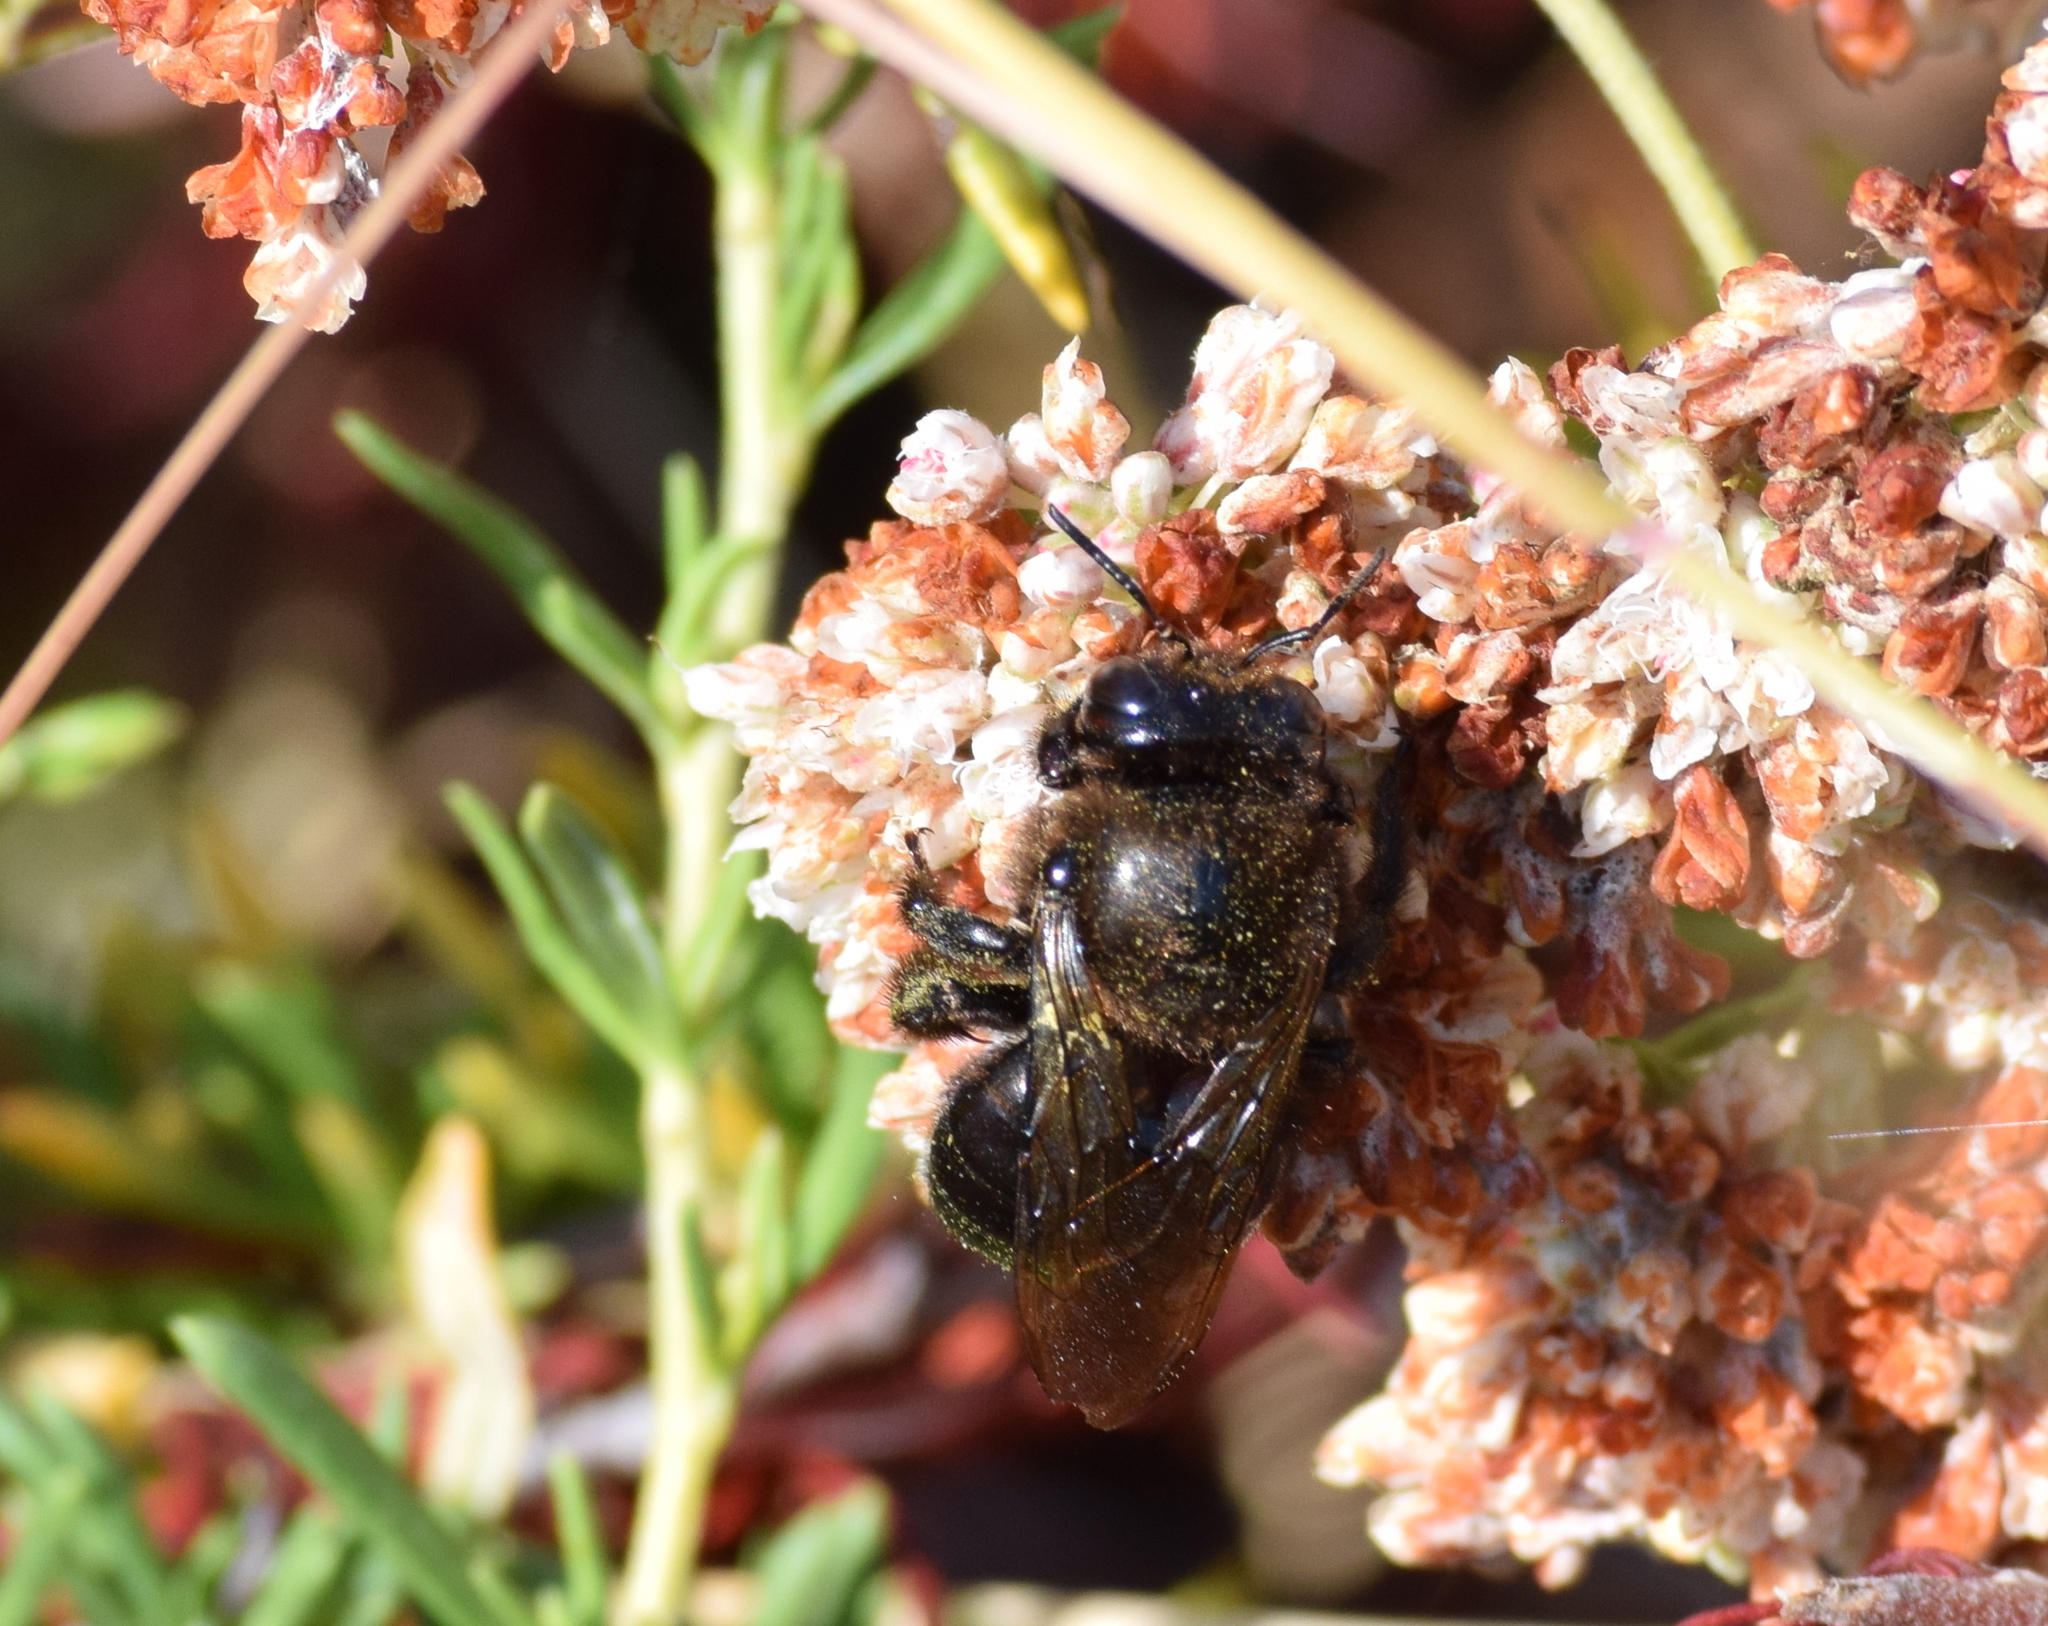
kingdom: Animalia
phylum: Arthropoda
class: Insecta
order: Hymenoptera
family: Apidae
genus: Xylocopa
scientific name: Xylocopa tabaniformis
